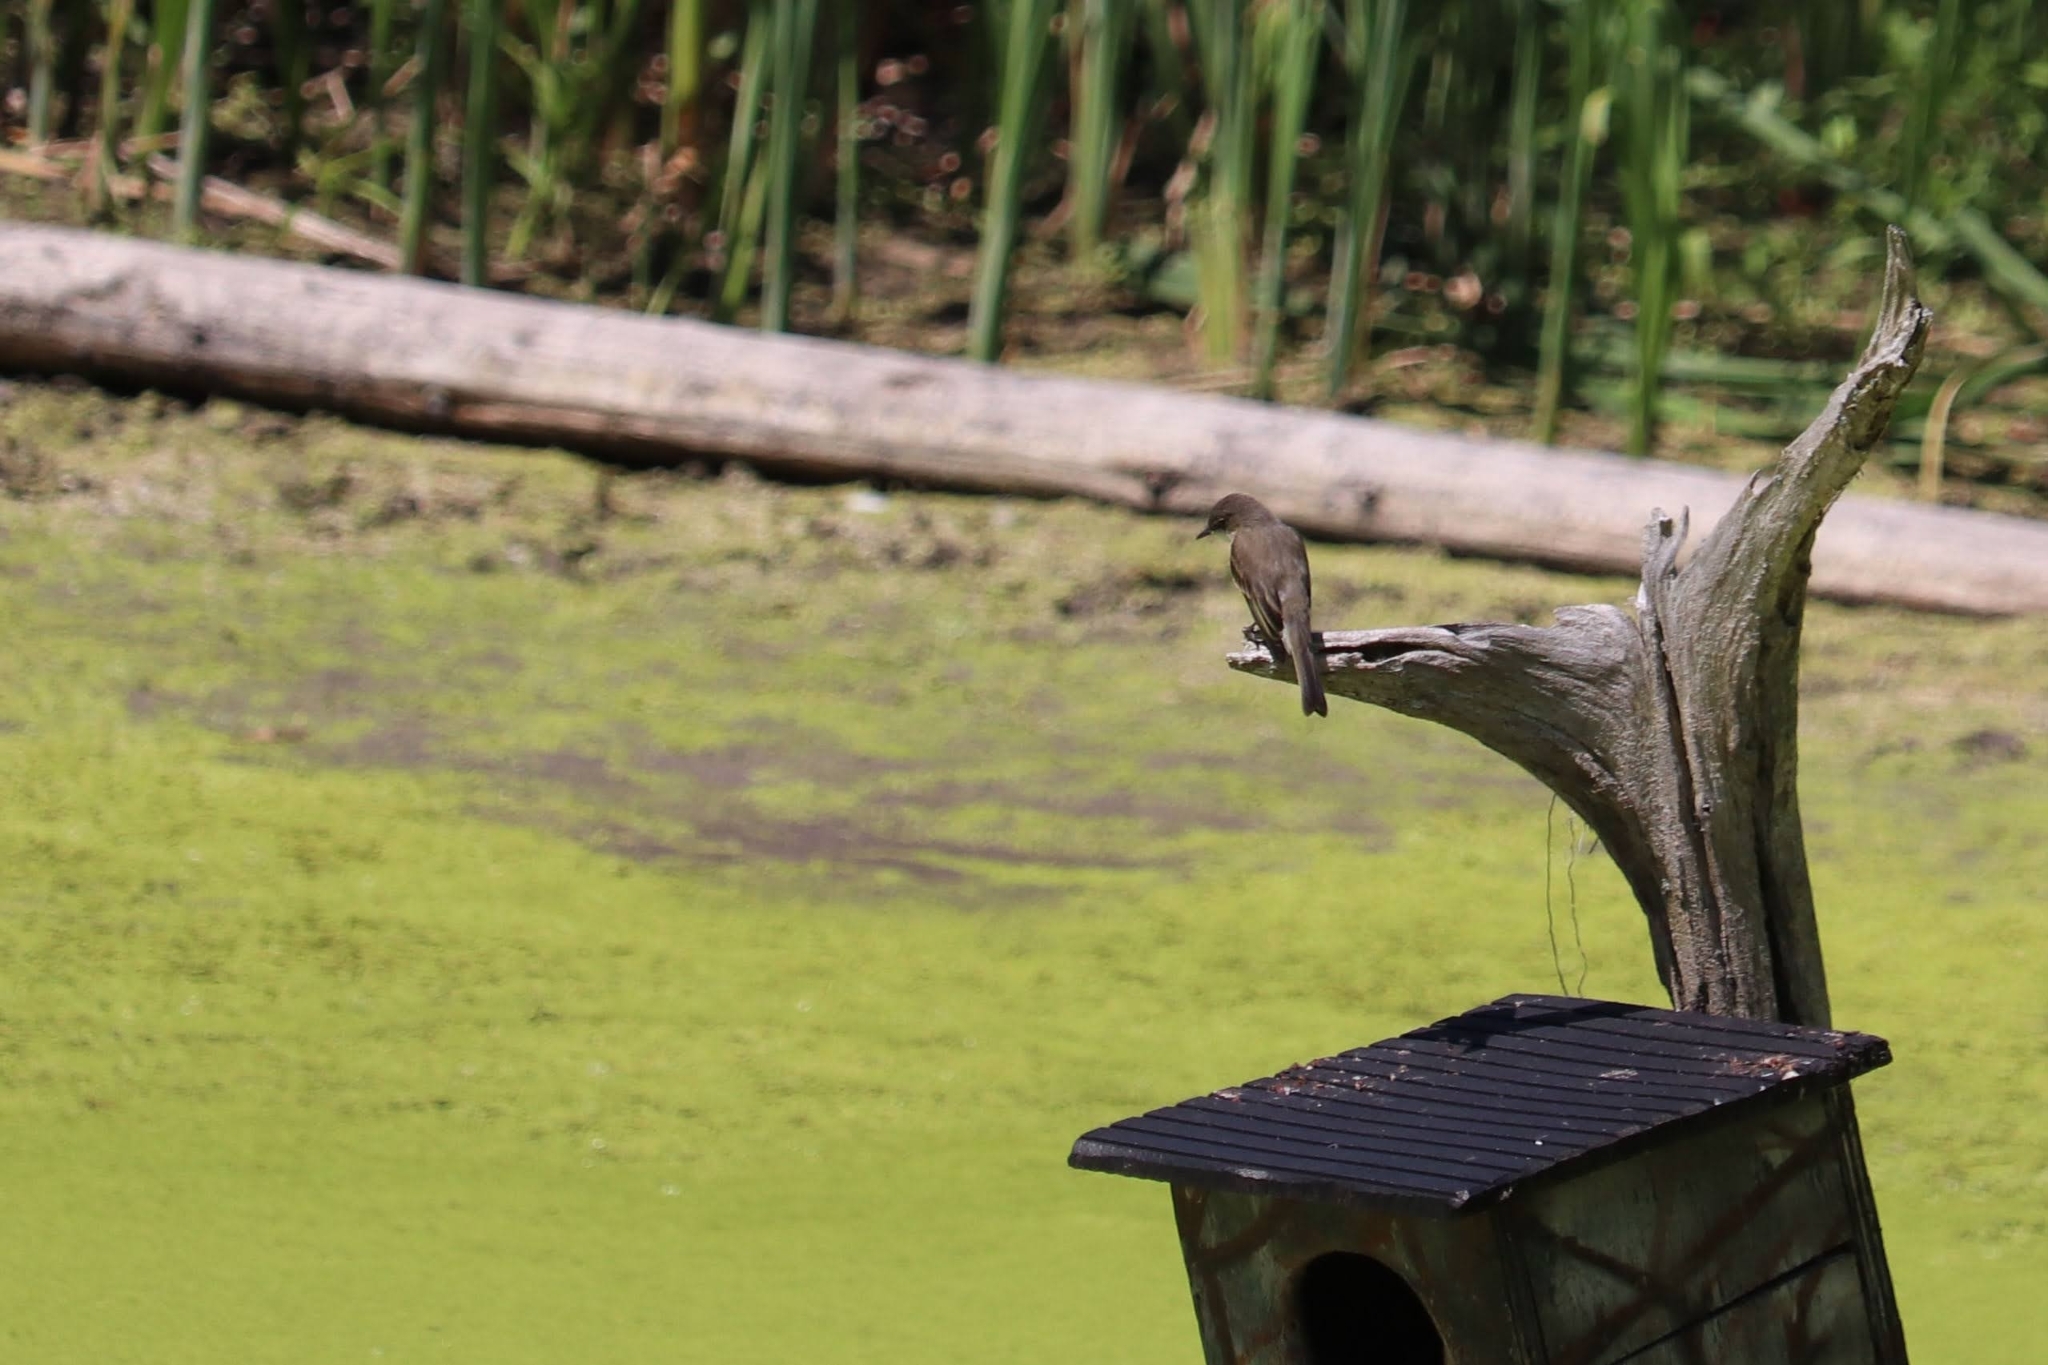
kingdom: Animalia
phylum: Chordata
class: Aves
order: Passeriformes
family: Tyrannidae
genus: Sayornis
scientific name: Sayornis phoebe
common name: Eastern phoebe
